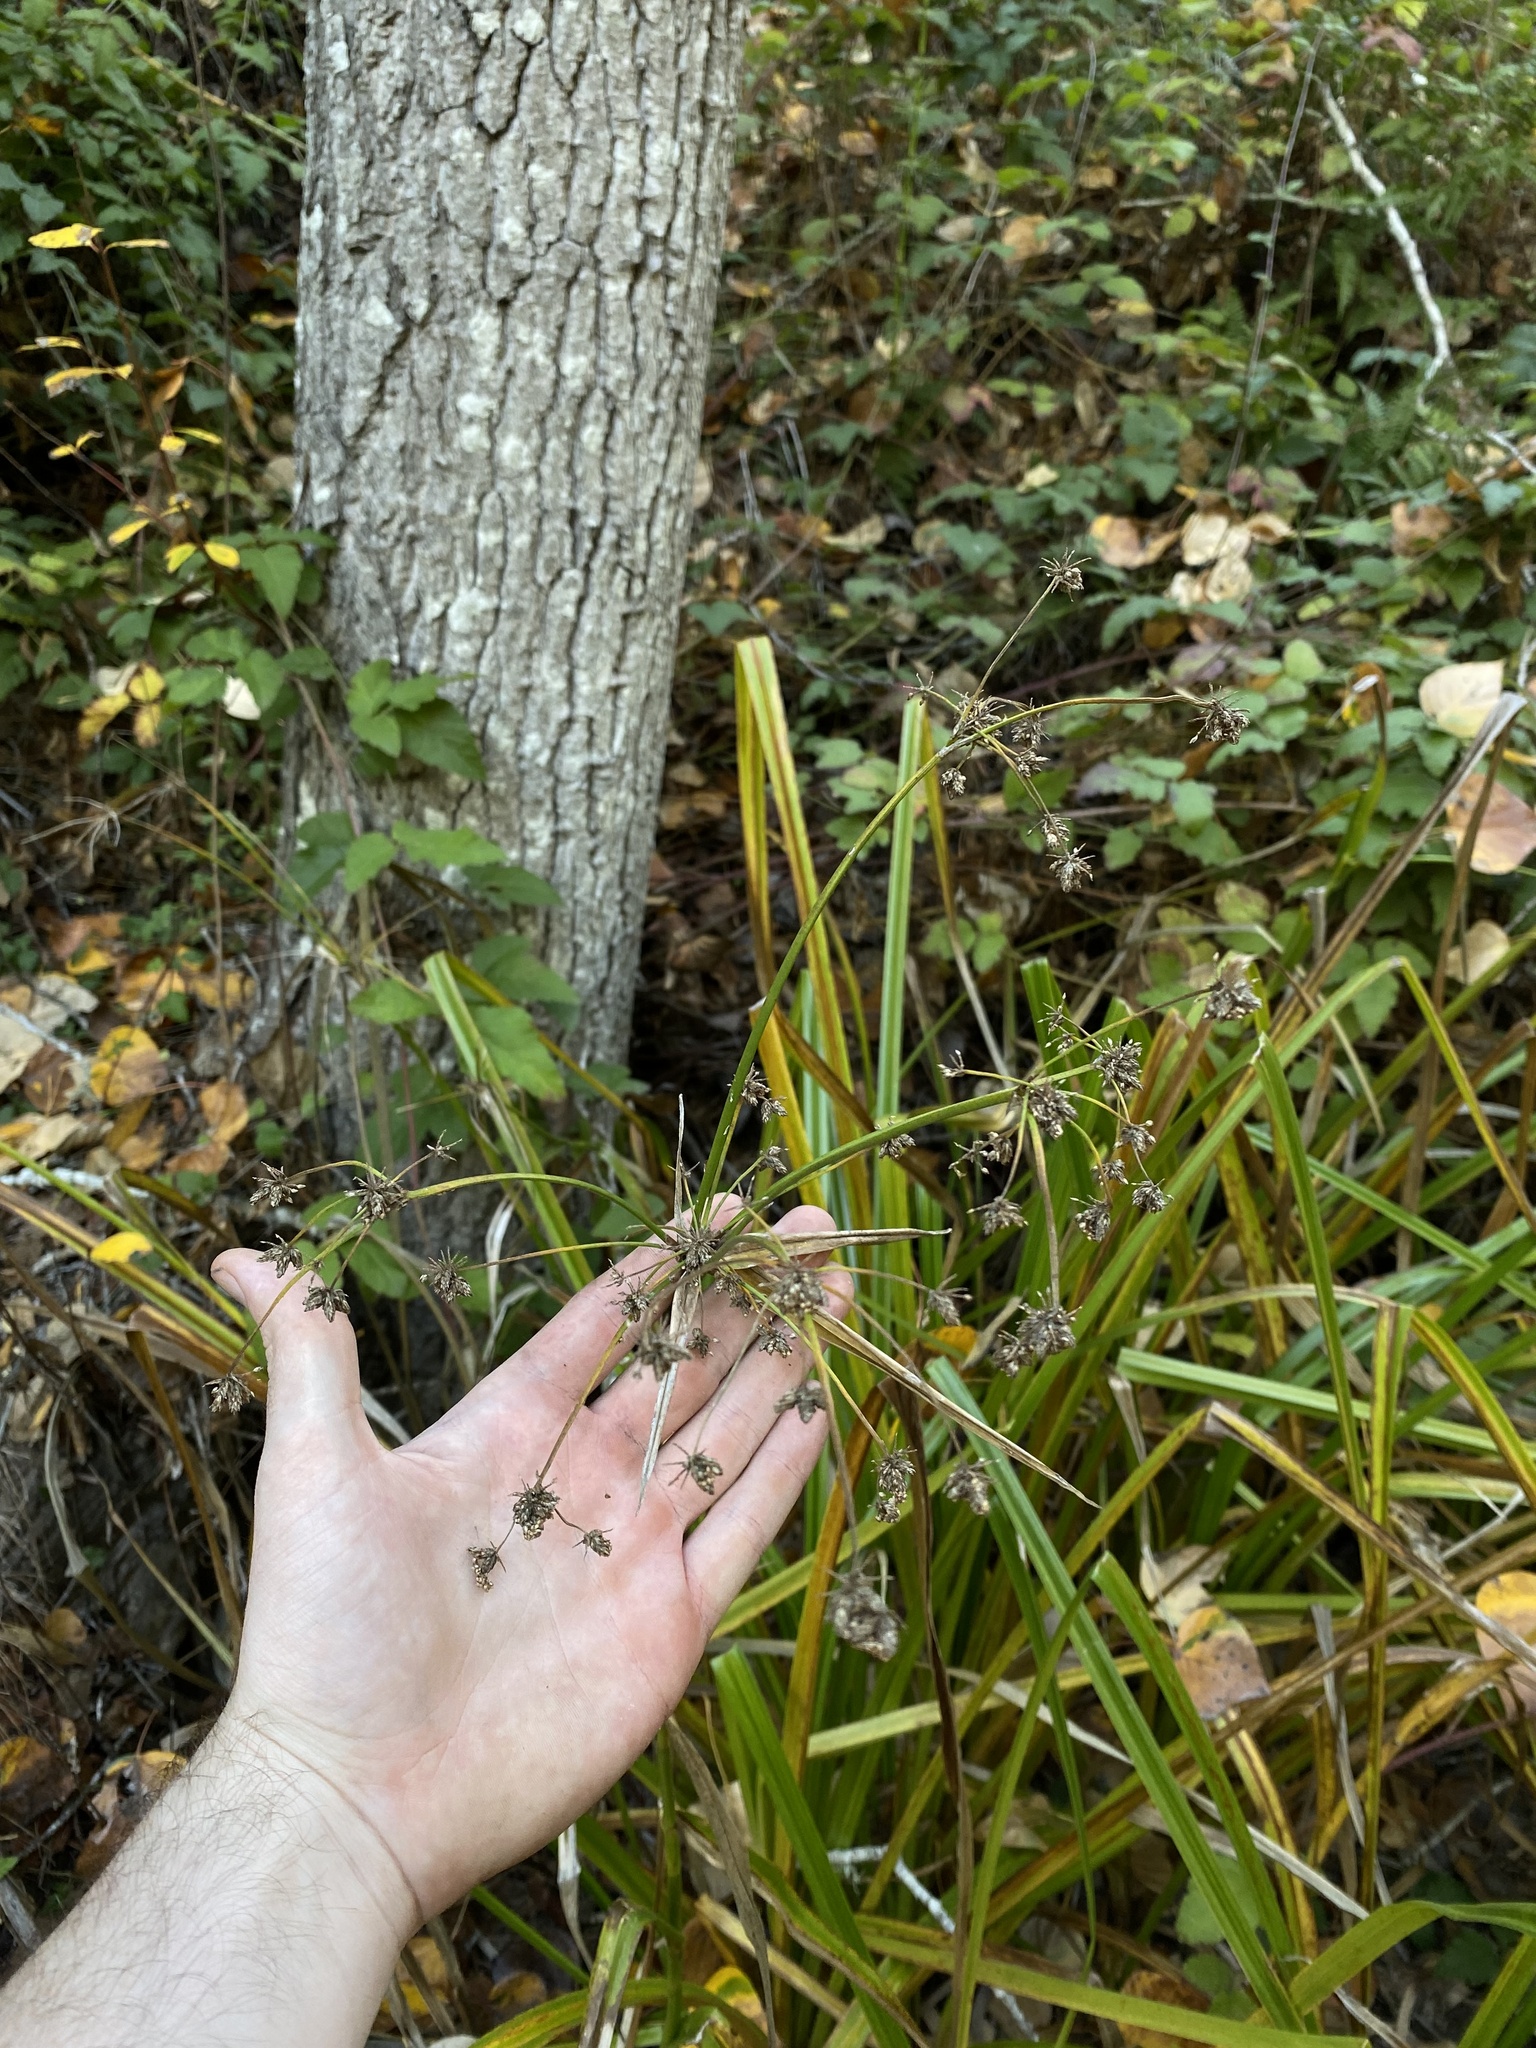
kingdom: Plantae
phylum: Tracheophyta
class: Liliopsida
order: Poales
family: Cyperaceae
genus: Scirpus
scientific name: Scirpus microcarpus
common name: Panicled bulrush
